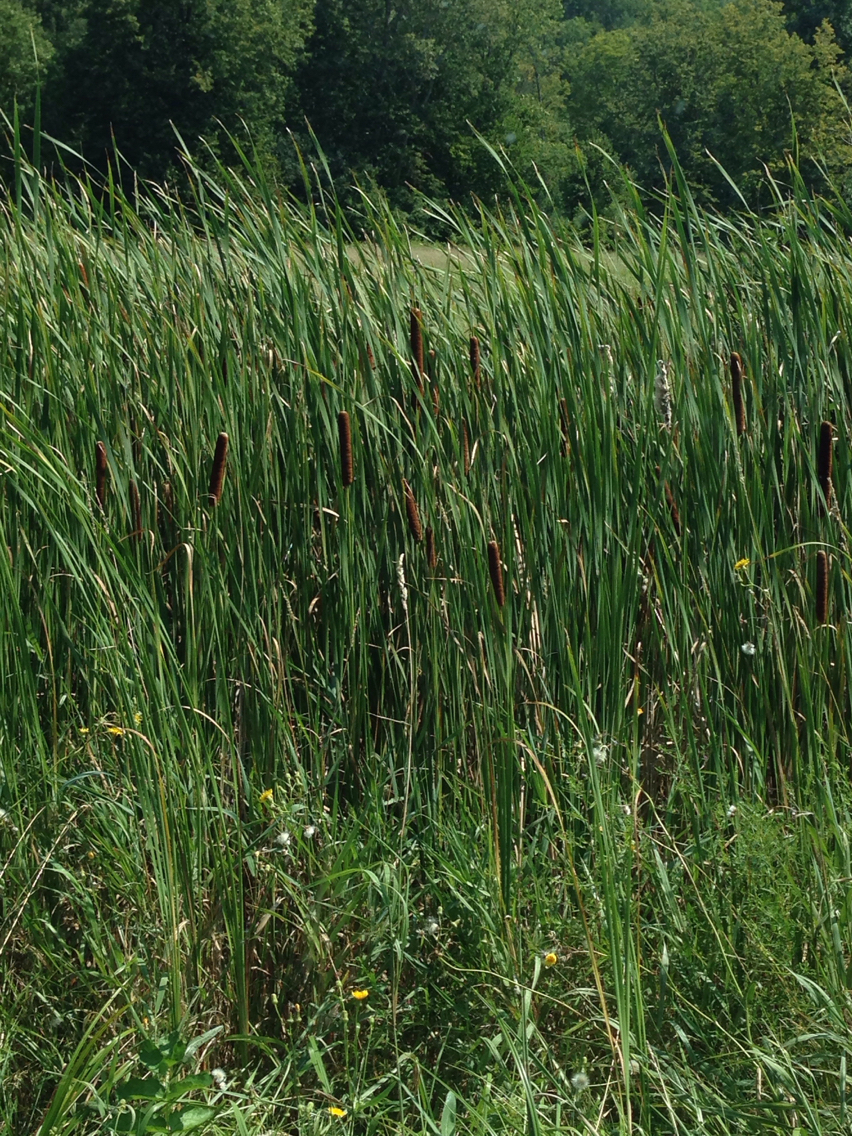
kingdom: Plantae
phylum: Tracheophyta
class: Liliopsida
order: Poales
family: Typhaceae
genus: Typha
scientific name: Typha
